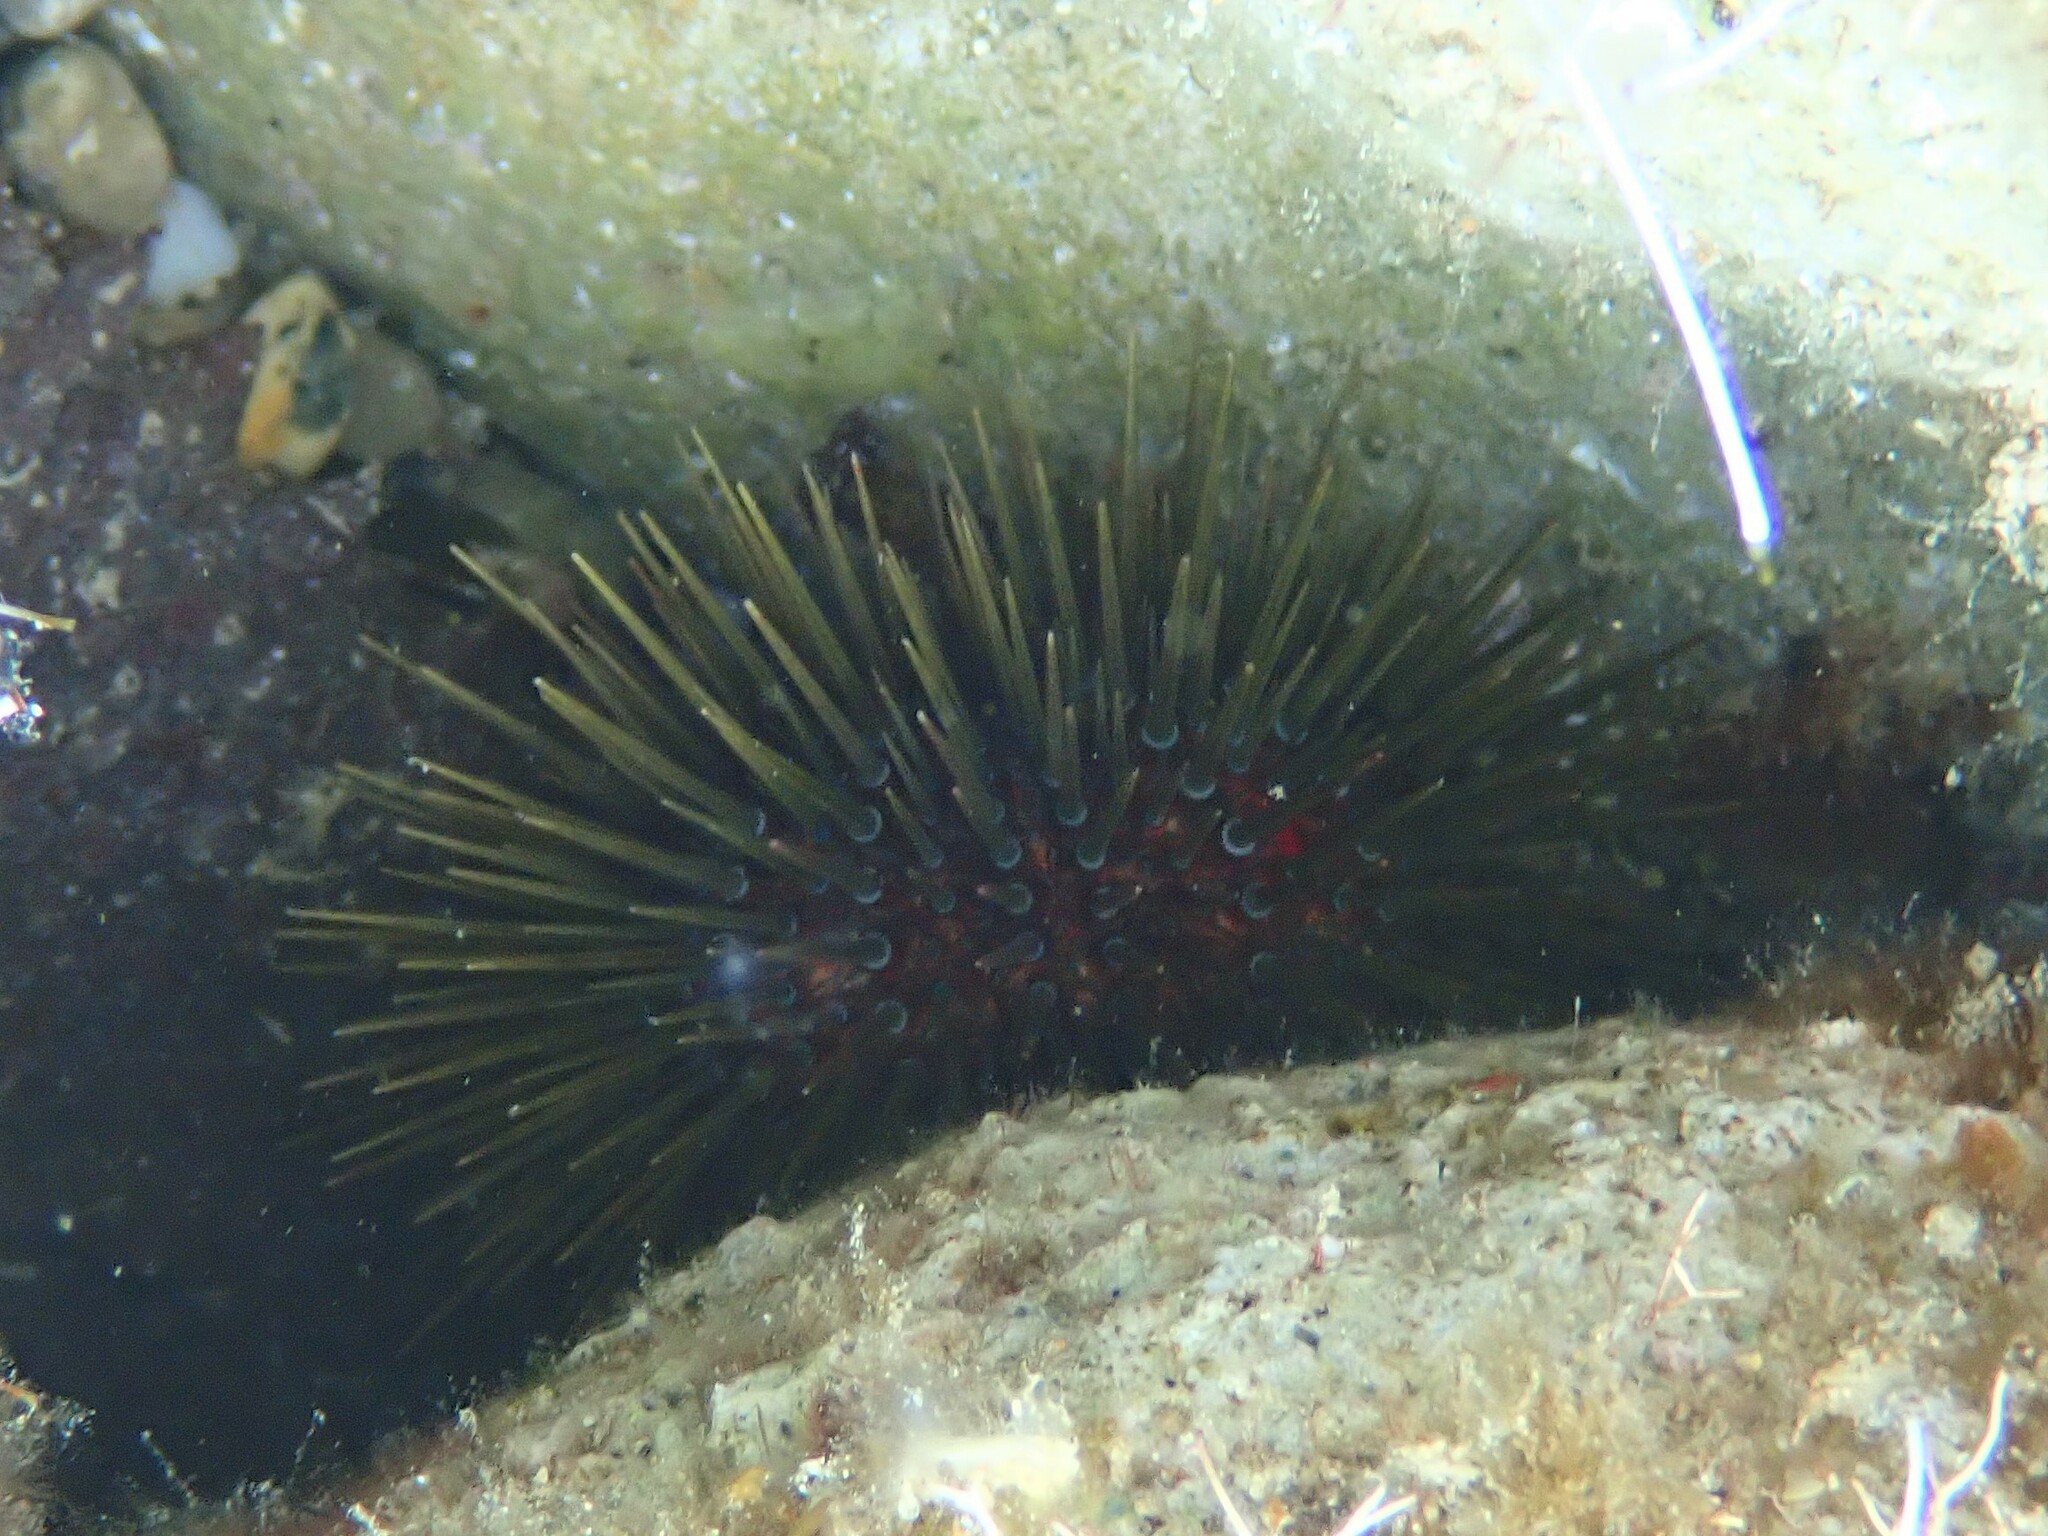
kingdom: Animalia
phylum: Echinodermata
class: Echinoidea
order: Camarodonta
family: Parechinidae
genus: Paracentrotus
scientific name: Paracentrotus lividus
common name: Purple sea urchin
